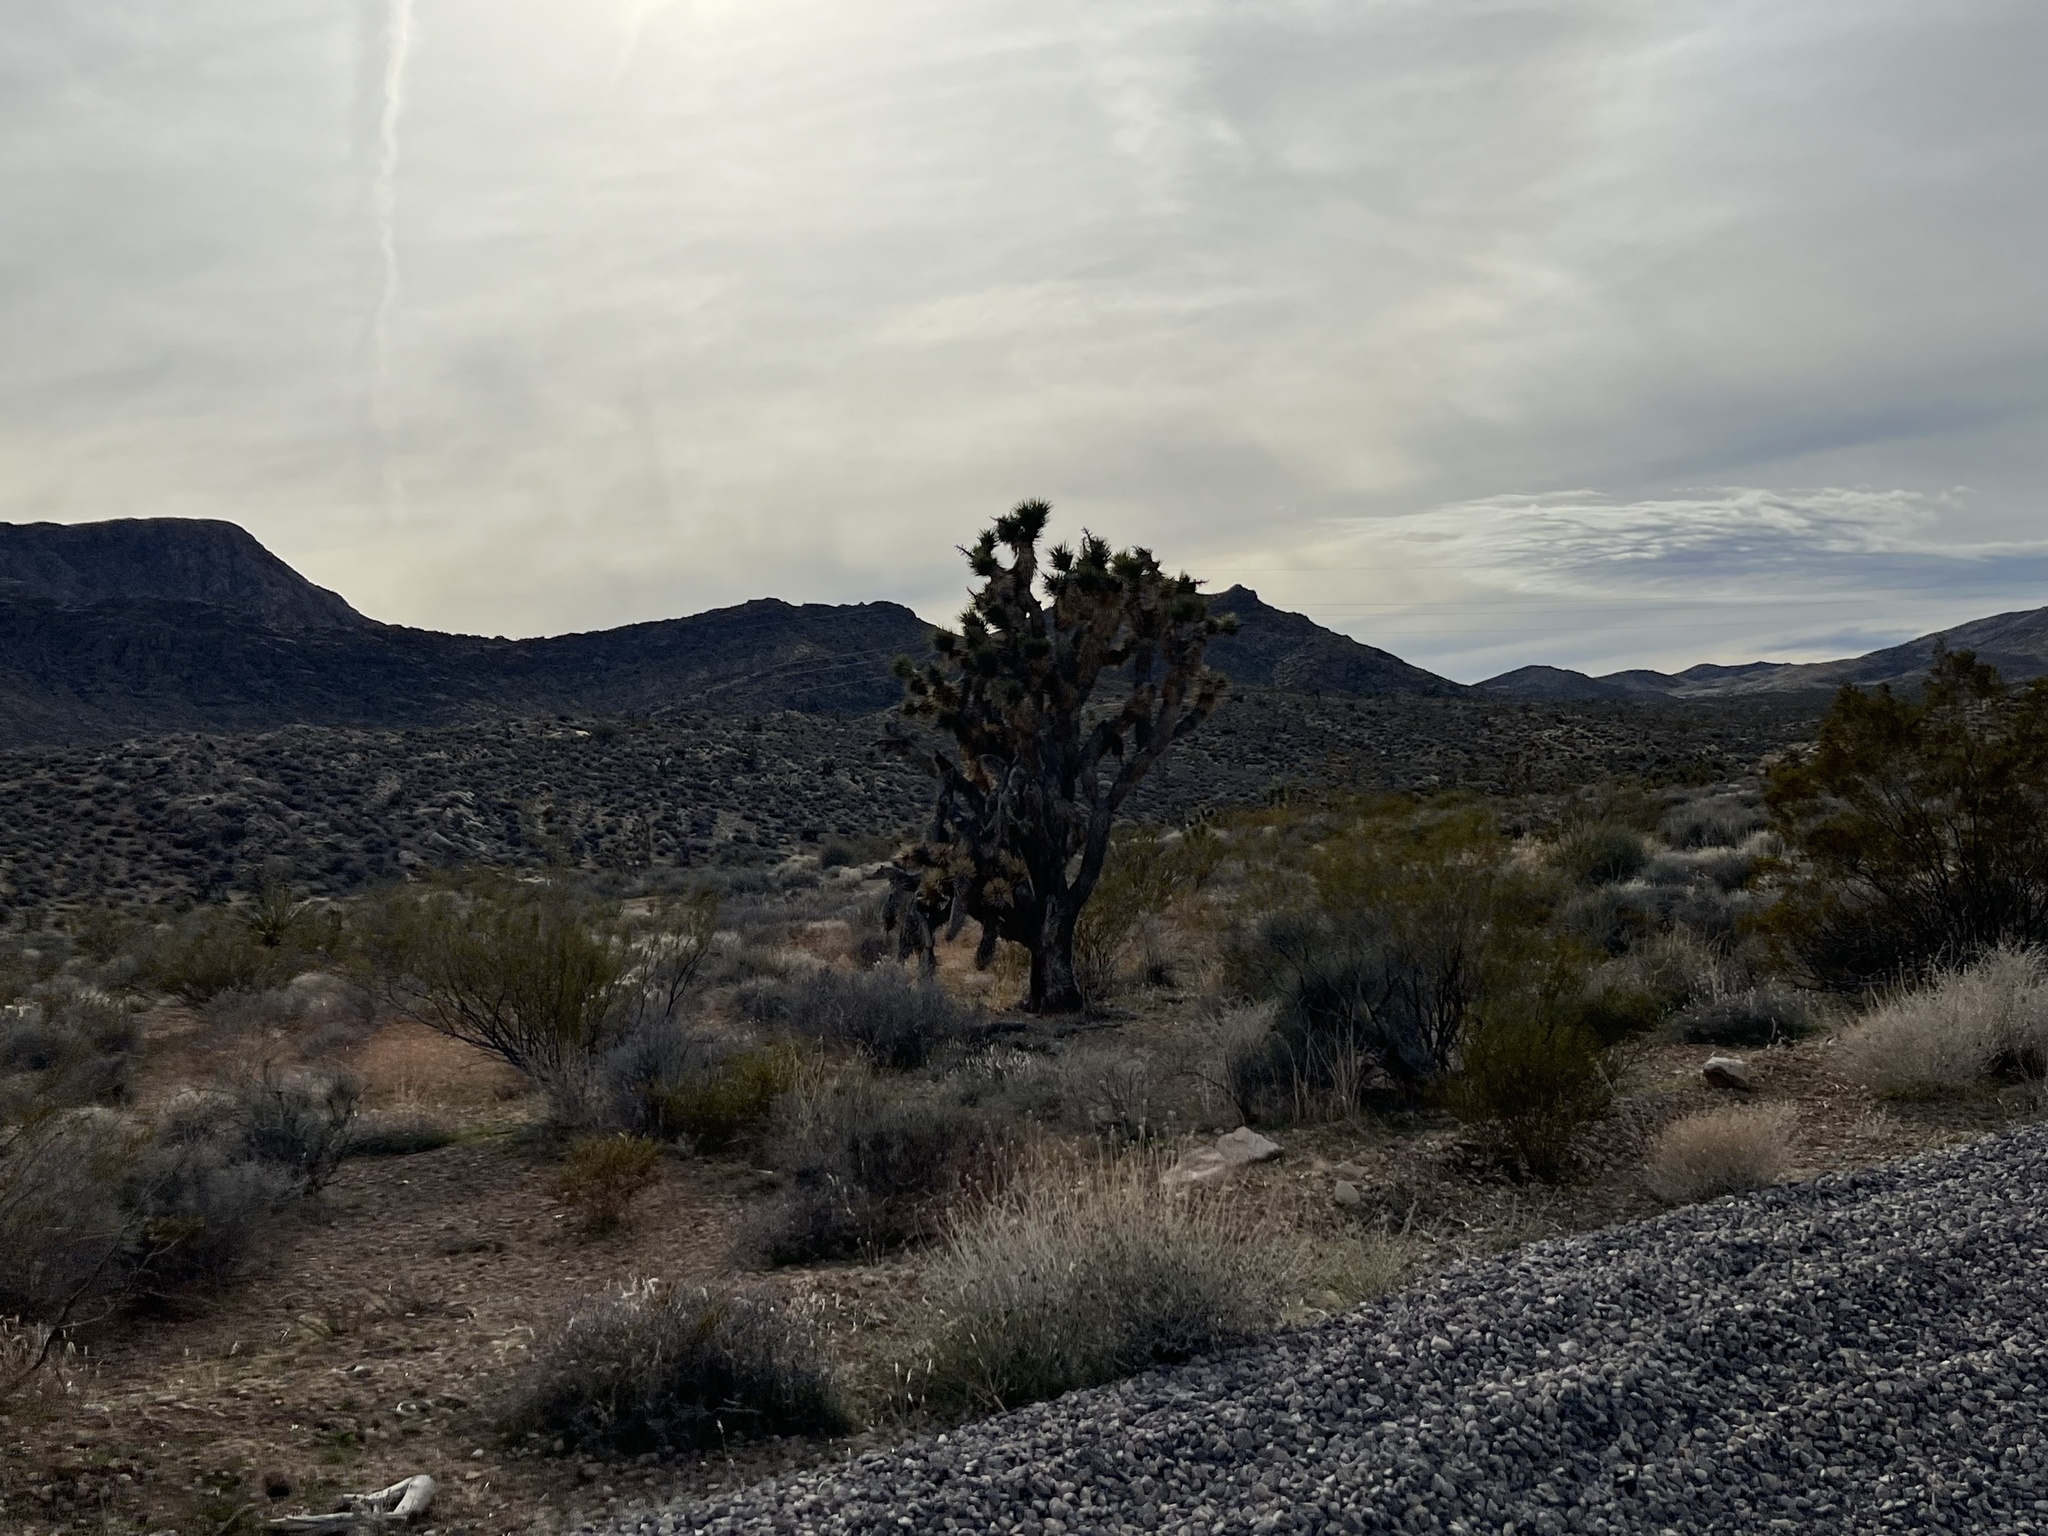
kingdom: Plantae
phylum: Tracheophyta
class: Liliopsida
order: Asparagales
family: Asparagaceae
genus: Yucca
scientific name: Yucca brevifolia
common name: Joshua tree
